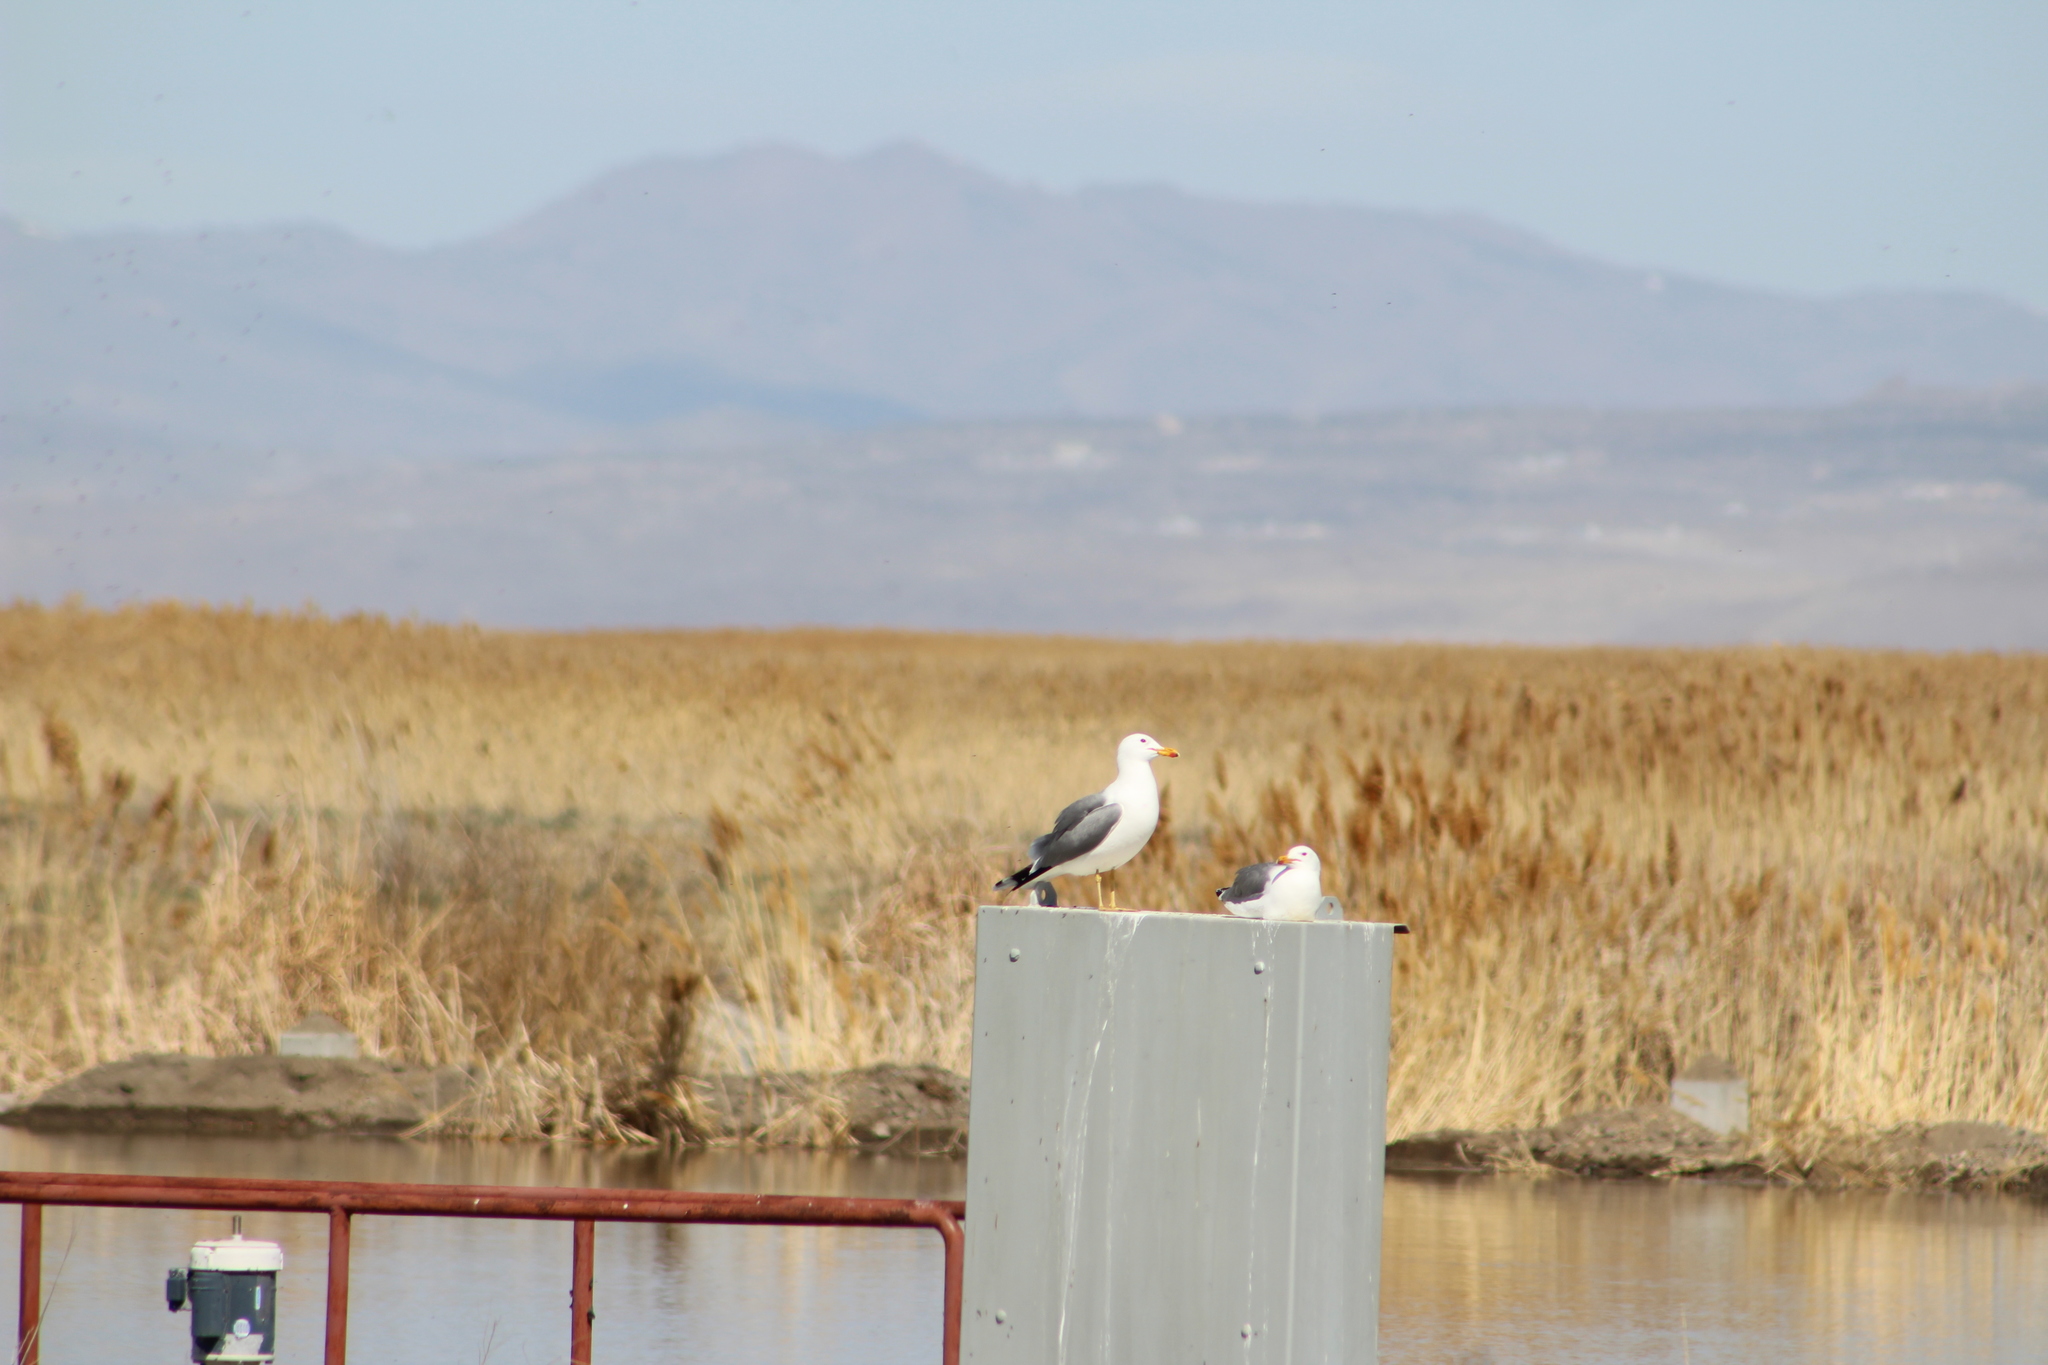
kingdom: Animalia
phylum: Chordata
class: Aves
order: Charadriiformes
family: Laridae
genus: Larus
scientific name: Larus californicus
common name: California gull
